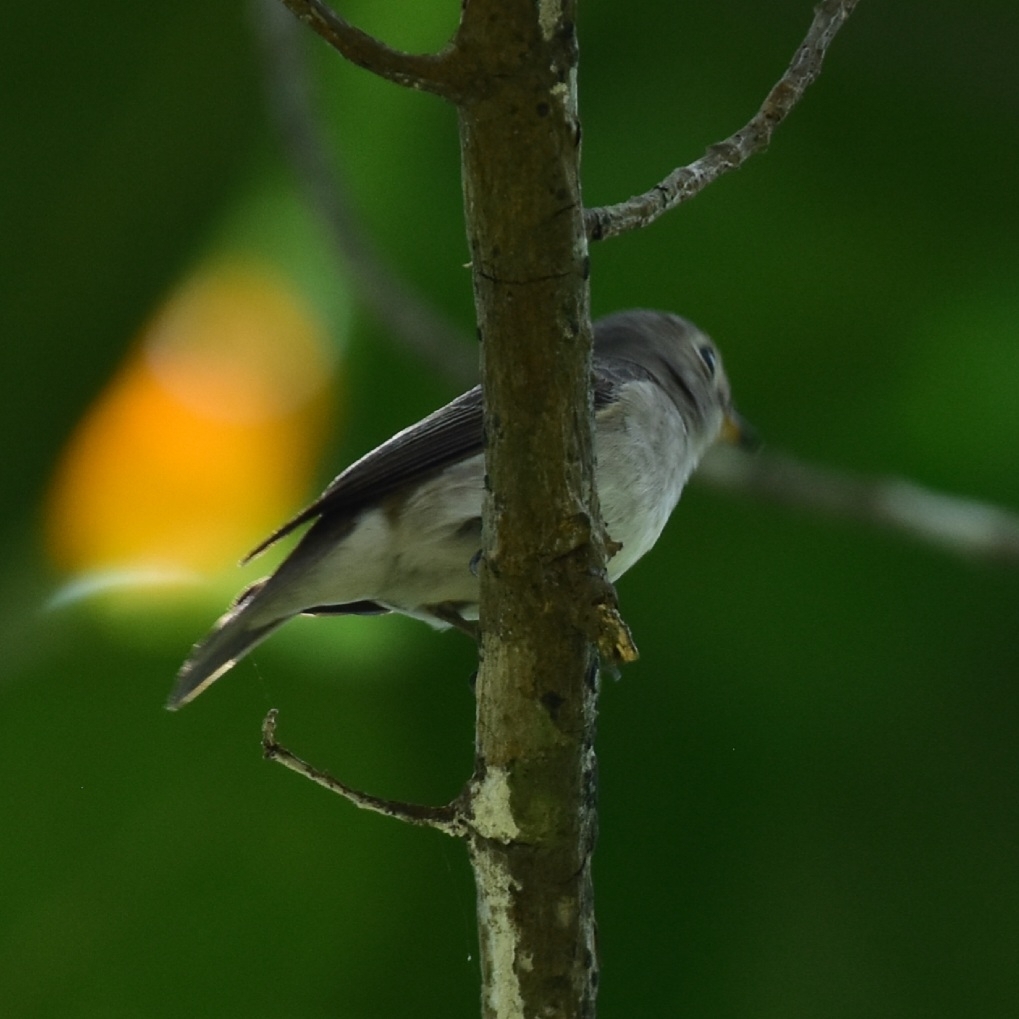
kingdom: Animalia
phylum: Chordata
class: Aves
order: Passeriformes
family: Muscicapidae
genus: Muscicapa
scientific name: Muscicapa latirostris
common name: Asian brown flycatcher
